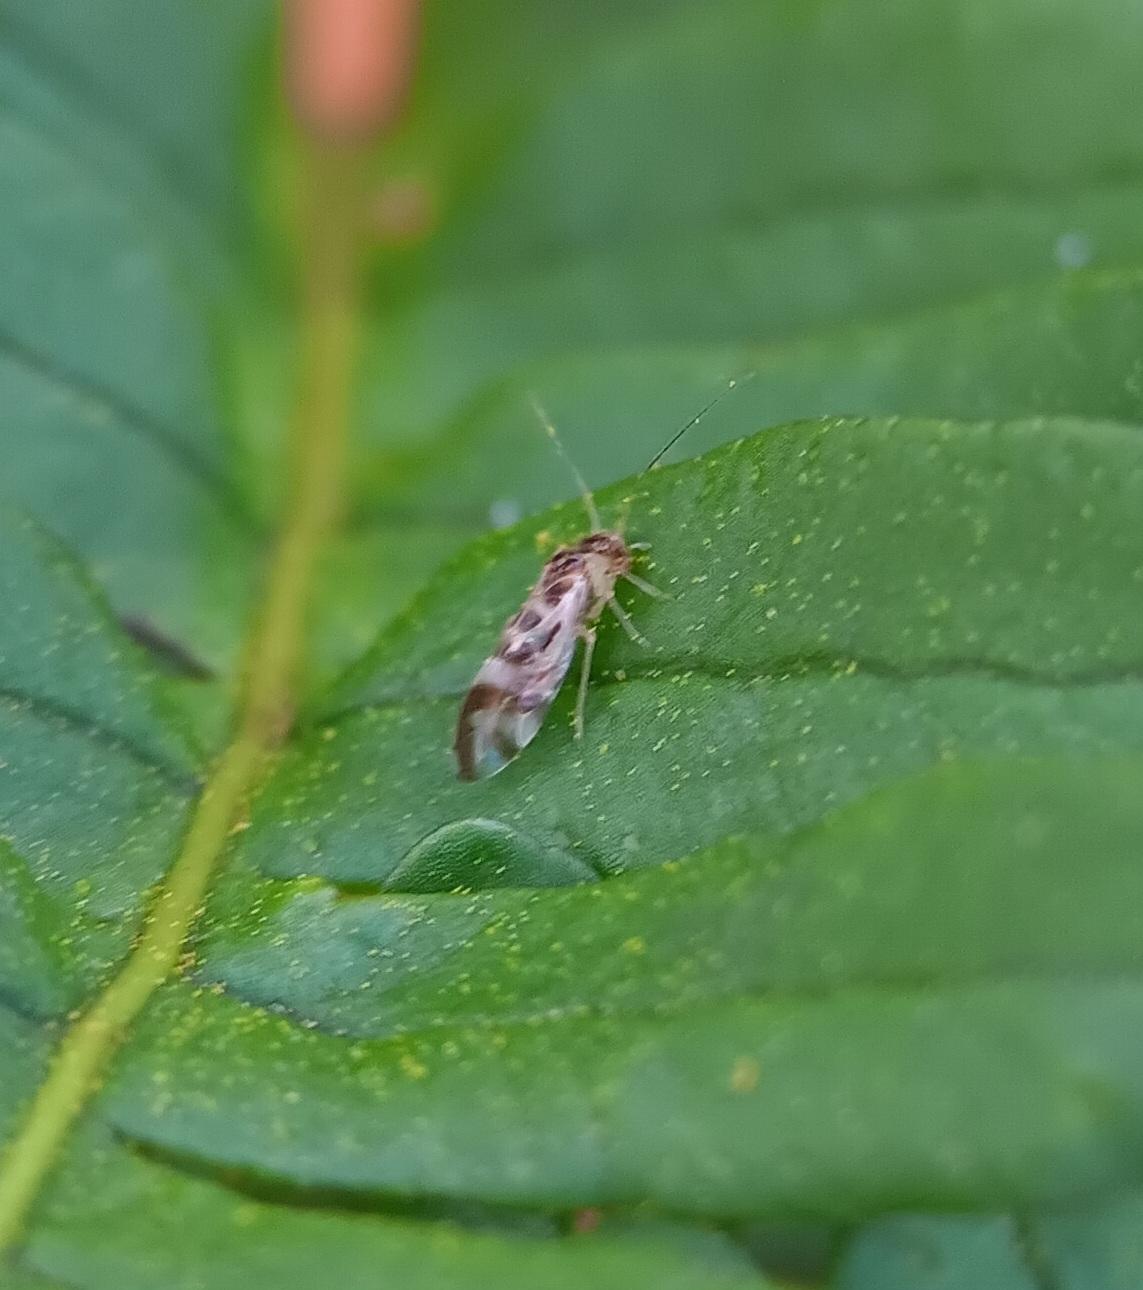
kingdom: Animalia
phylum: Arthropoda
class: Insecta
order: Psocodea
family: Stenopsocidae
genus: Graphopsocus
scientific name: Graphopsocus cruciatus
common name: Lizard bark louse
